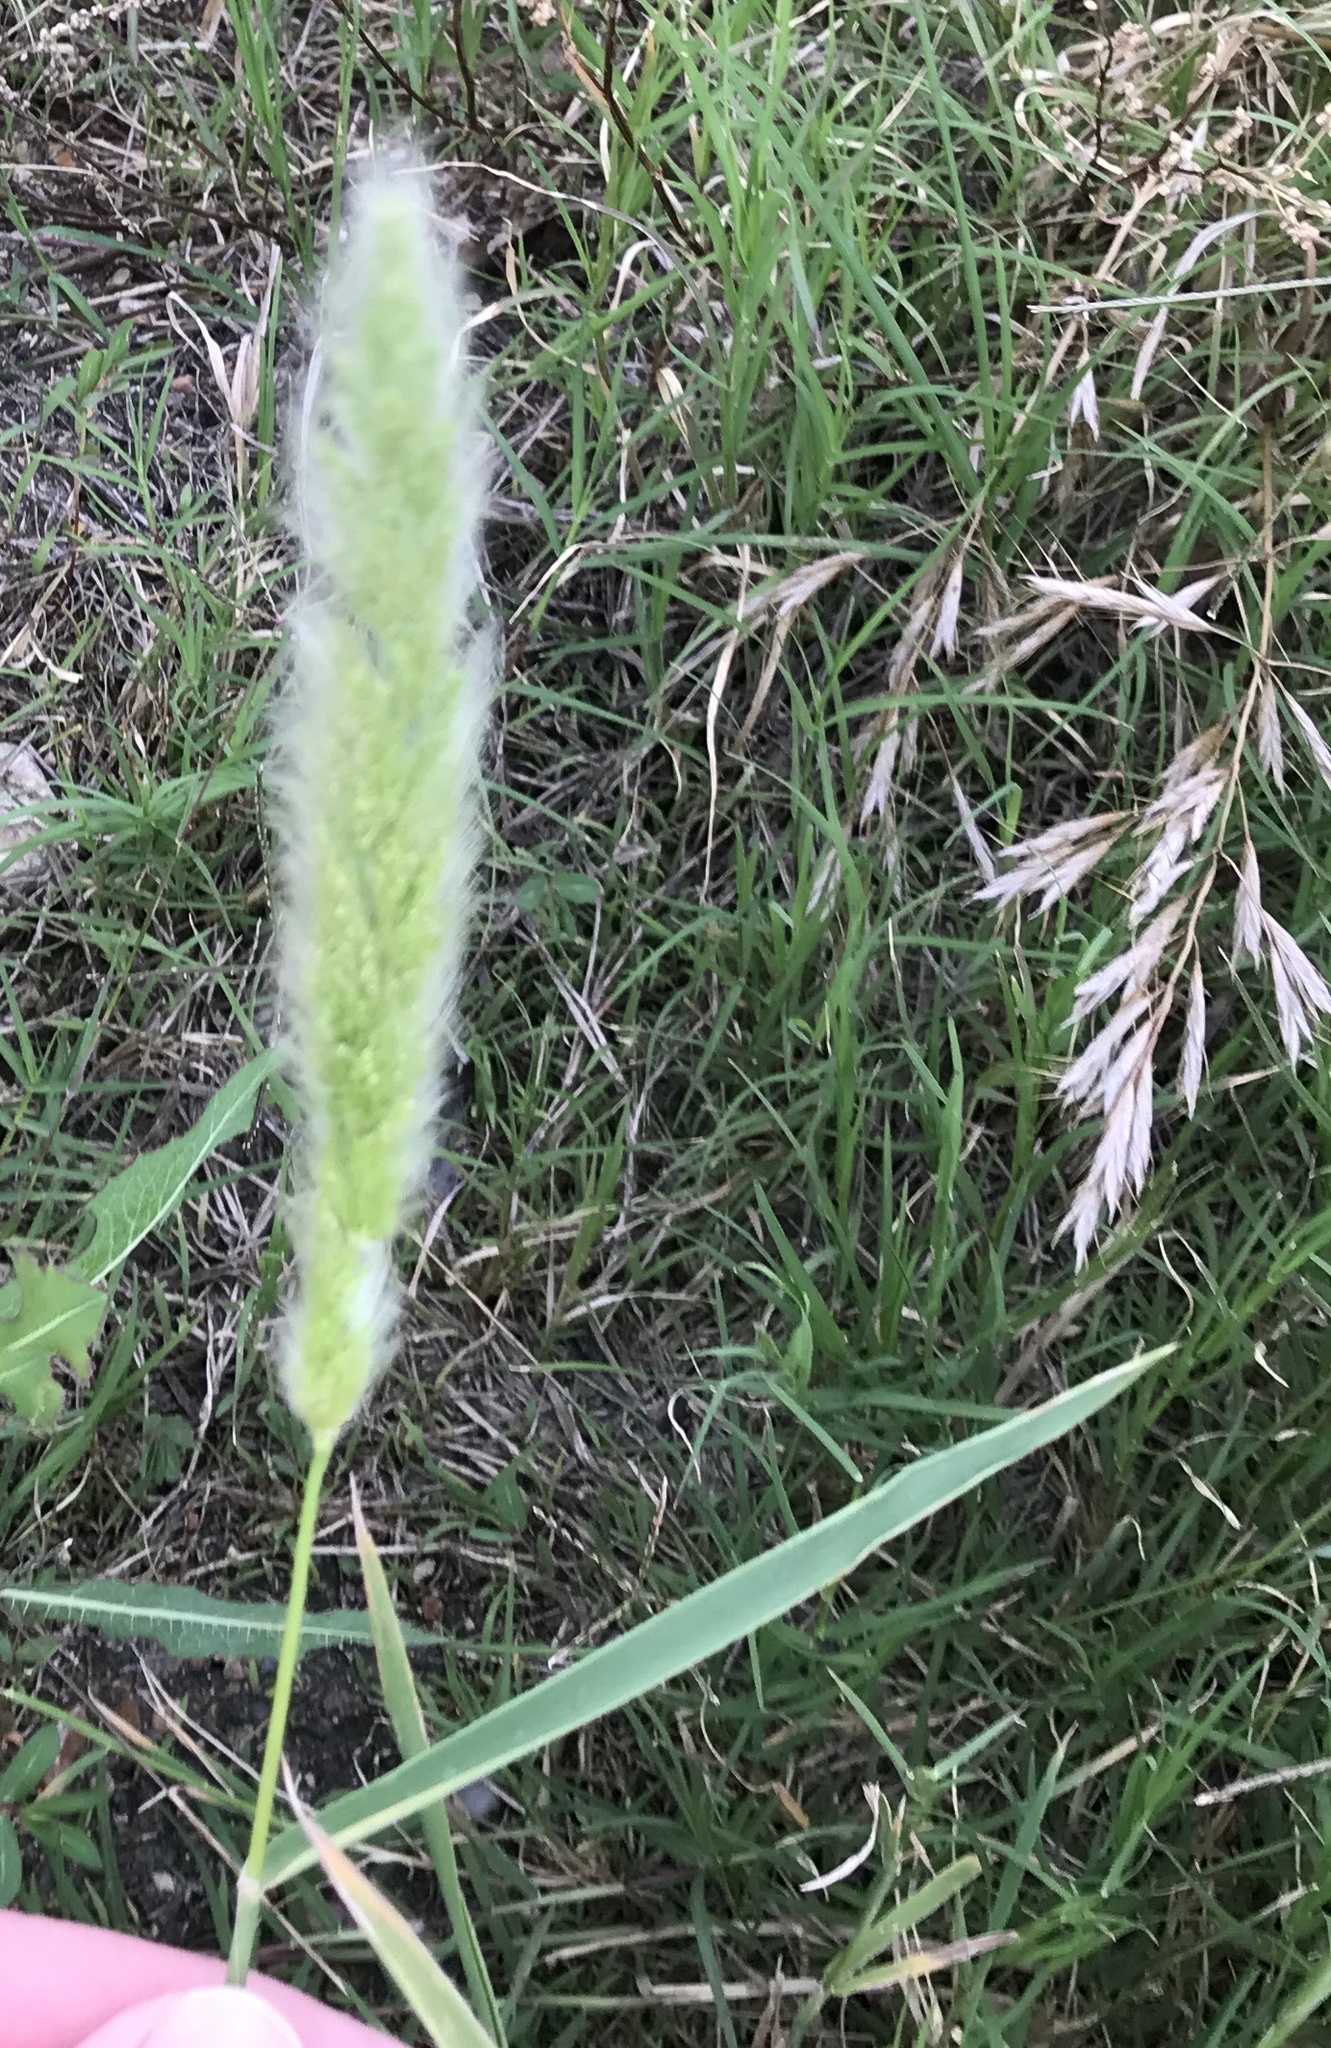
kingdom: Plantae
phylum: Tracheophyta
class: Liliopsida
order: Poales
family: Poaceae
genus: Polypogon
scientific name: Polypogon monspeliensis
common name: Annual rabbitsfoot grass
